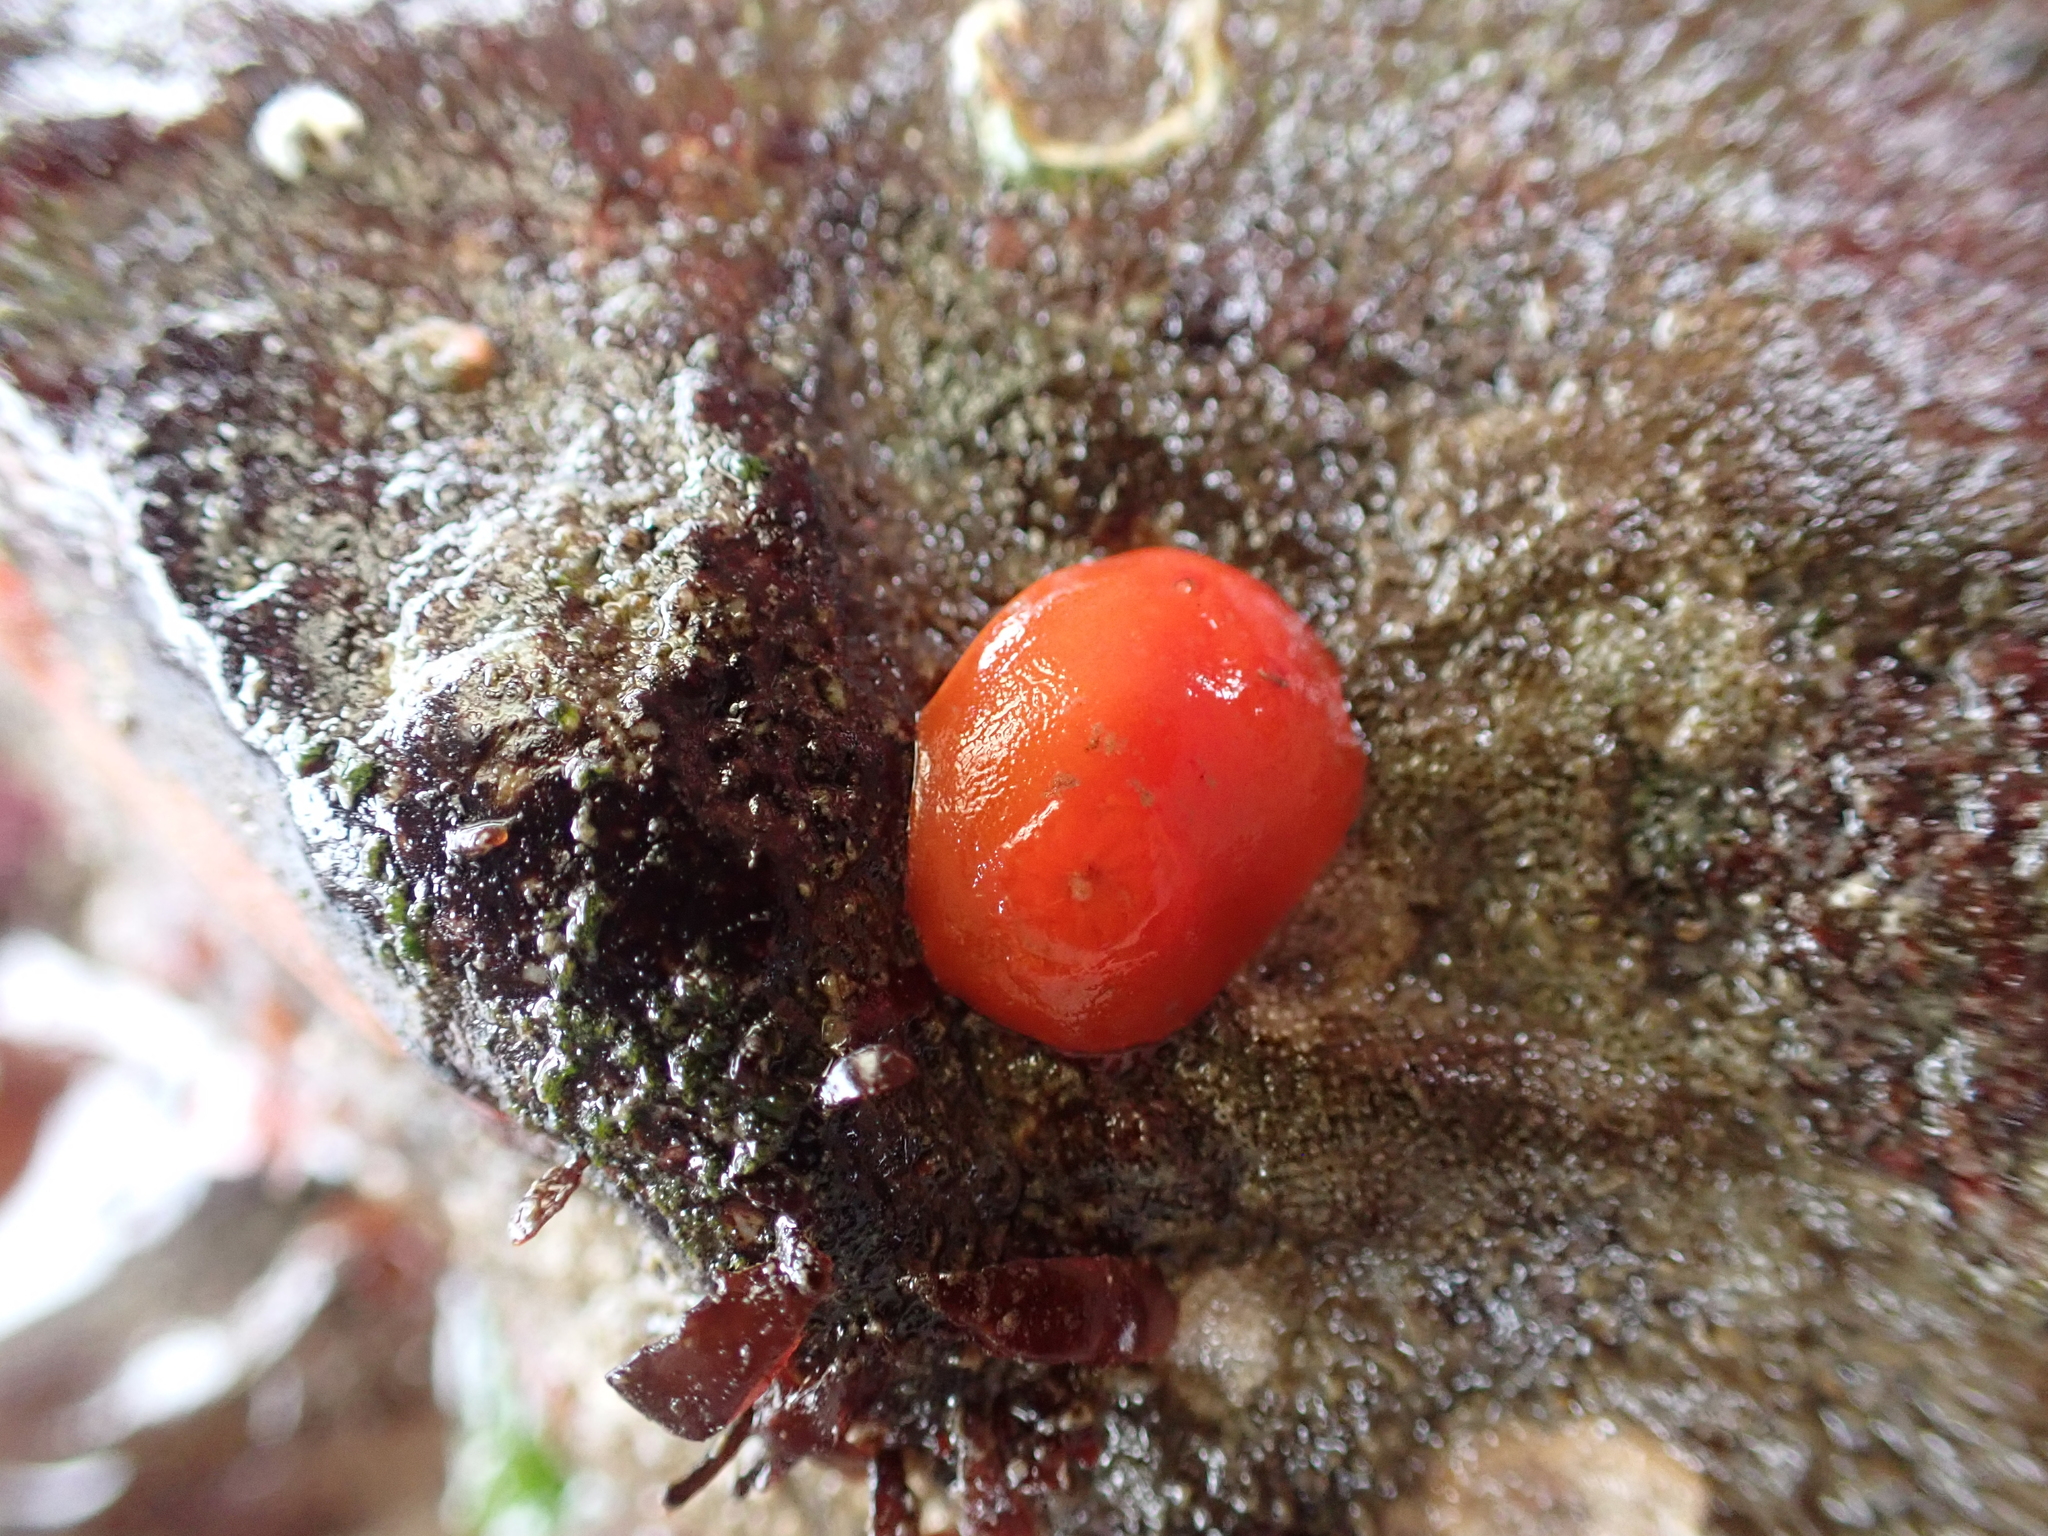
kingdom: Animalia
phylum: Mollusca
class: Gastropoda
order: Nudibranchia
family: Discodorididae
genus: Rostanga
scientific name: Rostanga pulchra
